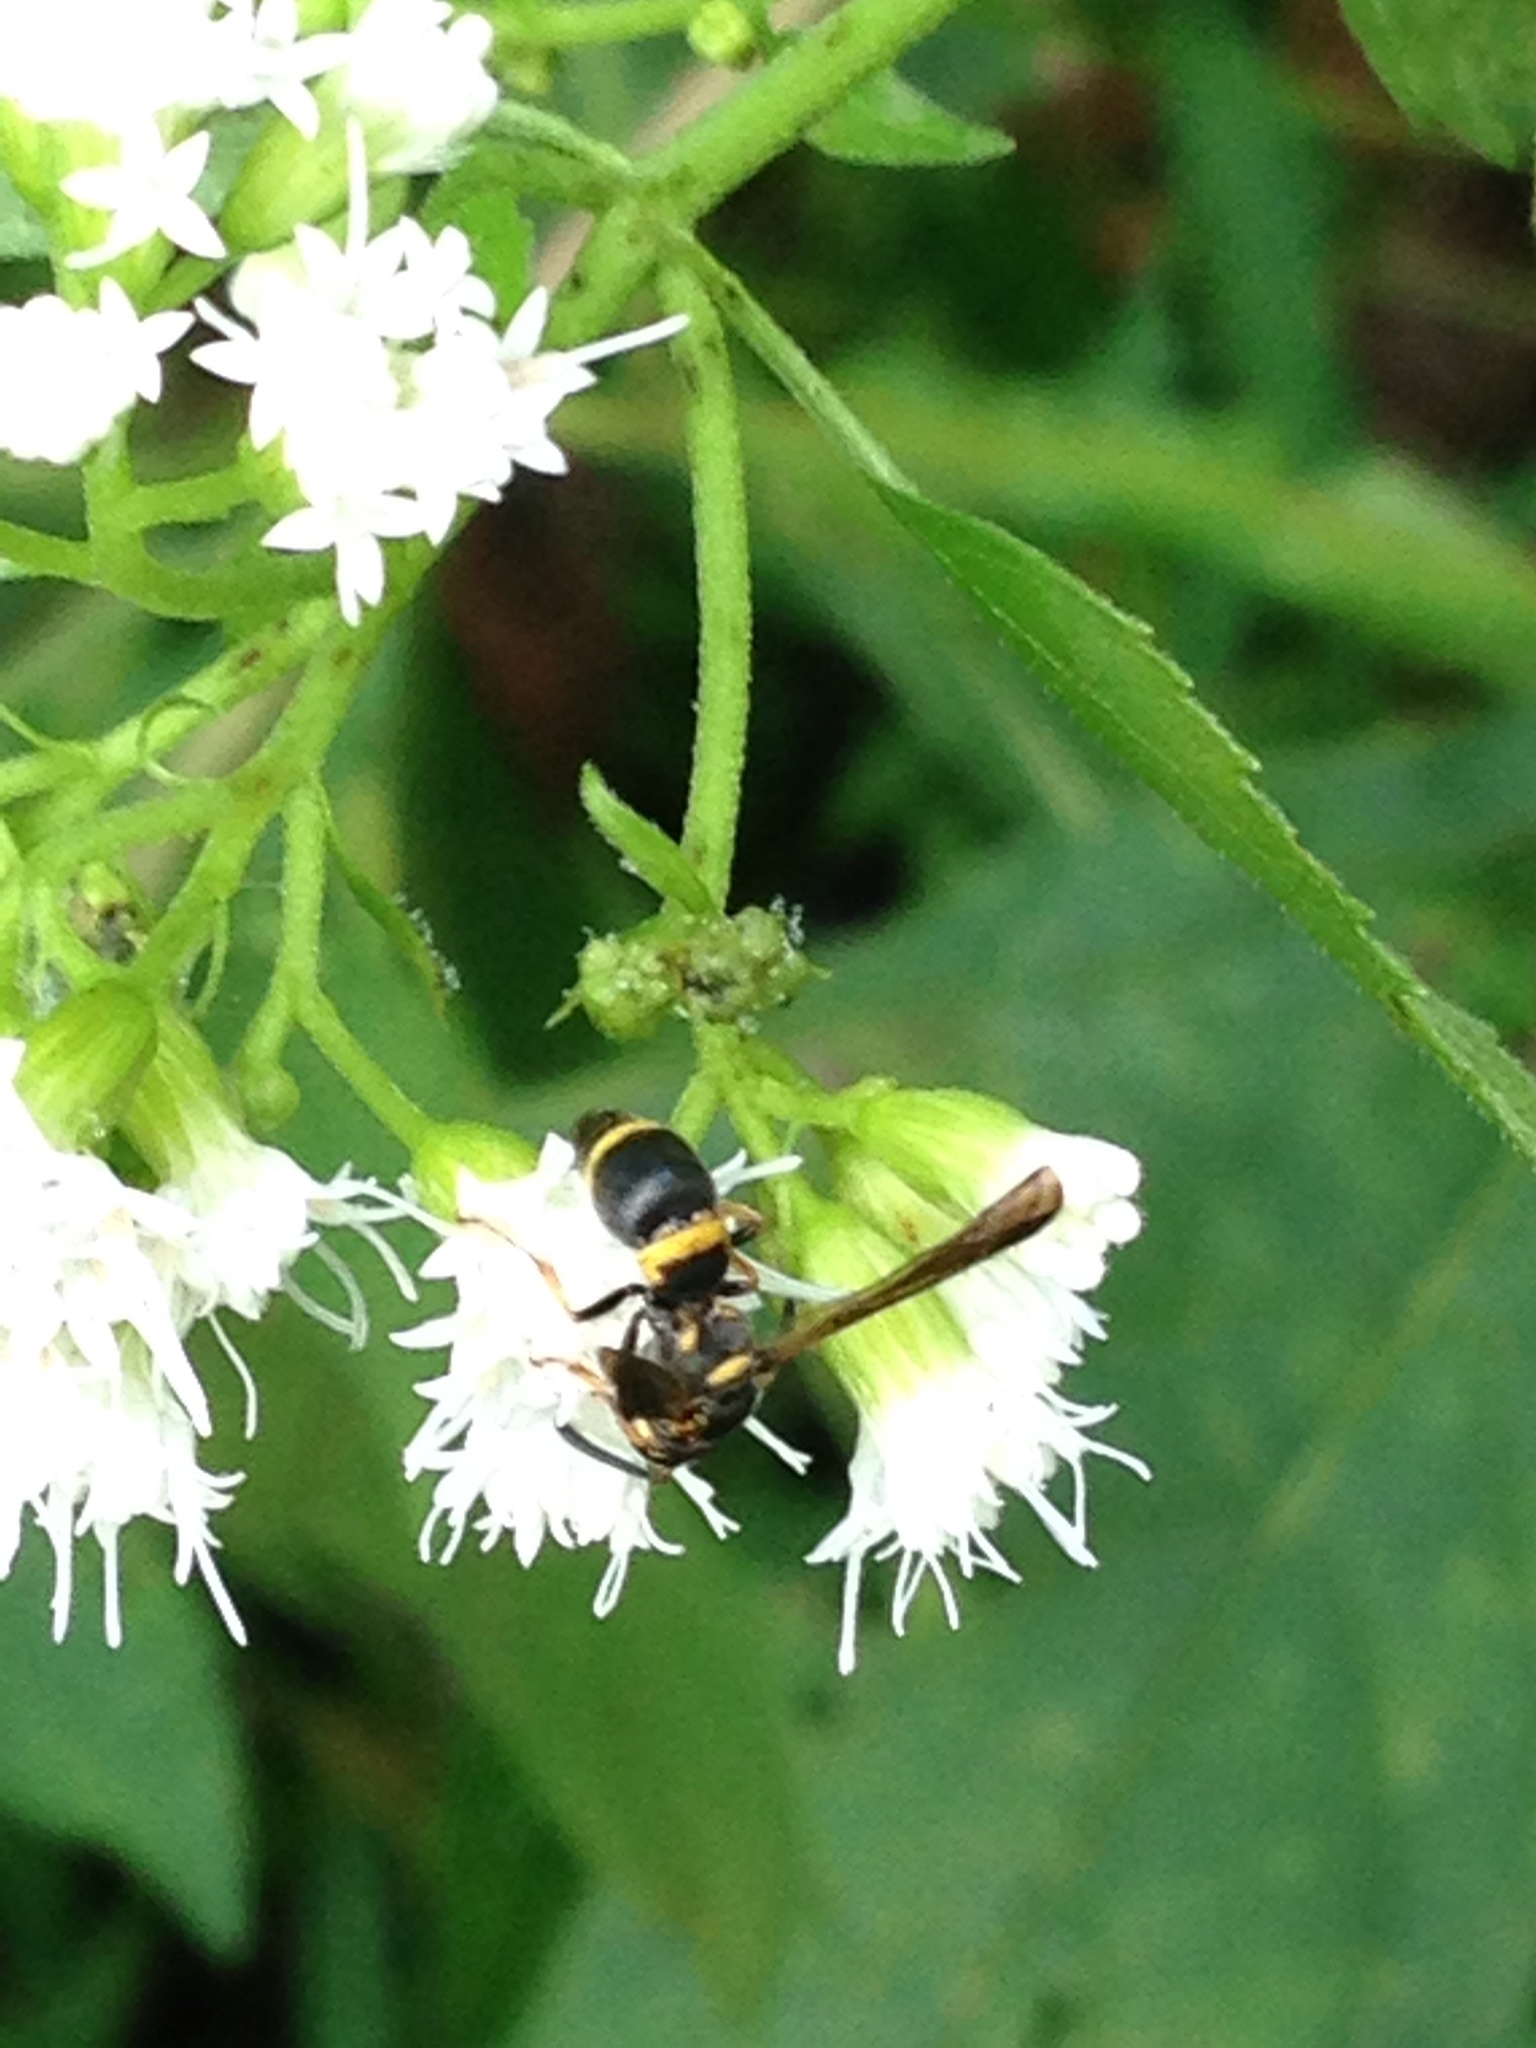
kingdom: Animalia
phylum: Arthropoda
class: Insecta
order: Hymenoptera
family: Eumenidae
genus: Parancistrocerus
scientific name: Parancistrocerus perennis
